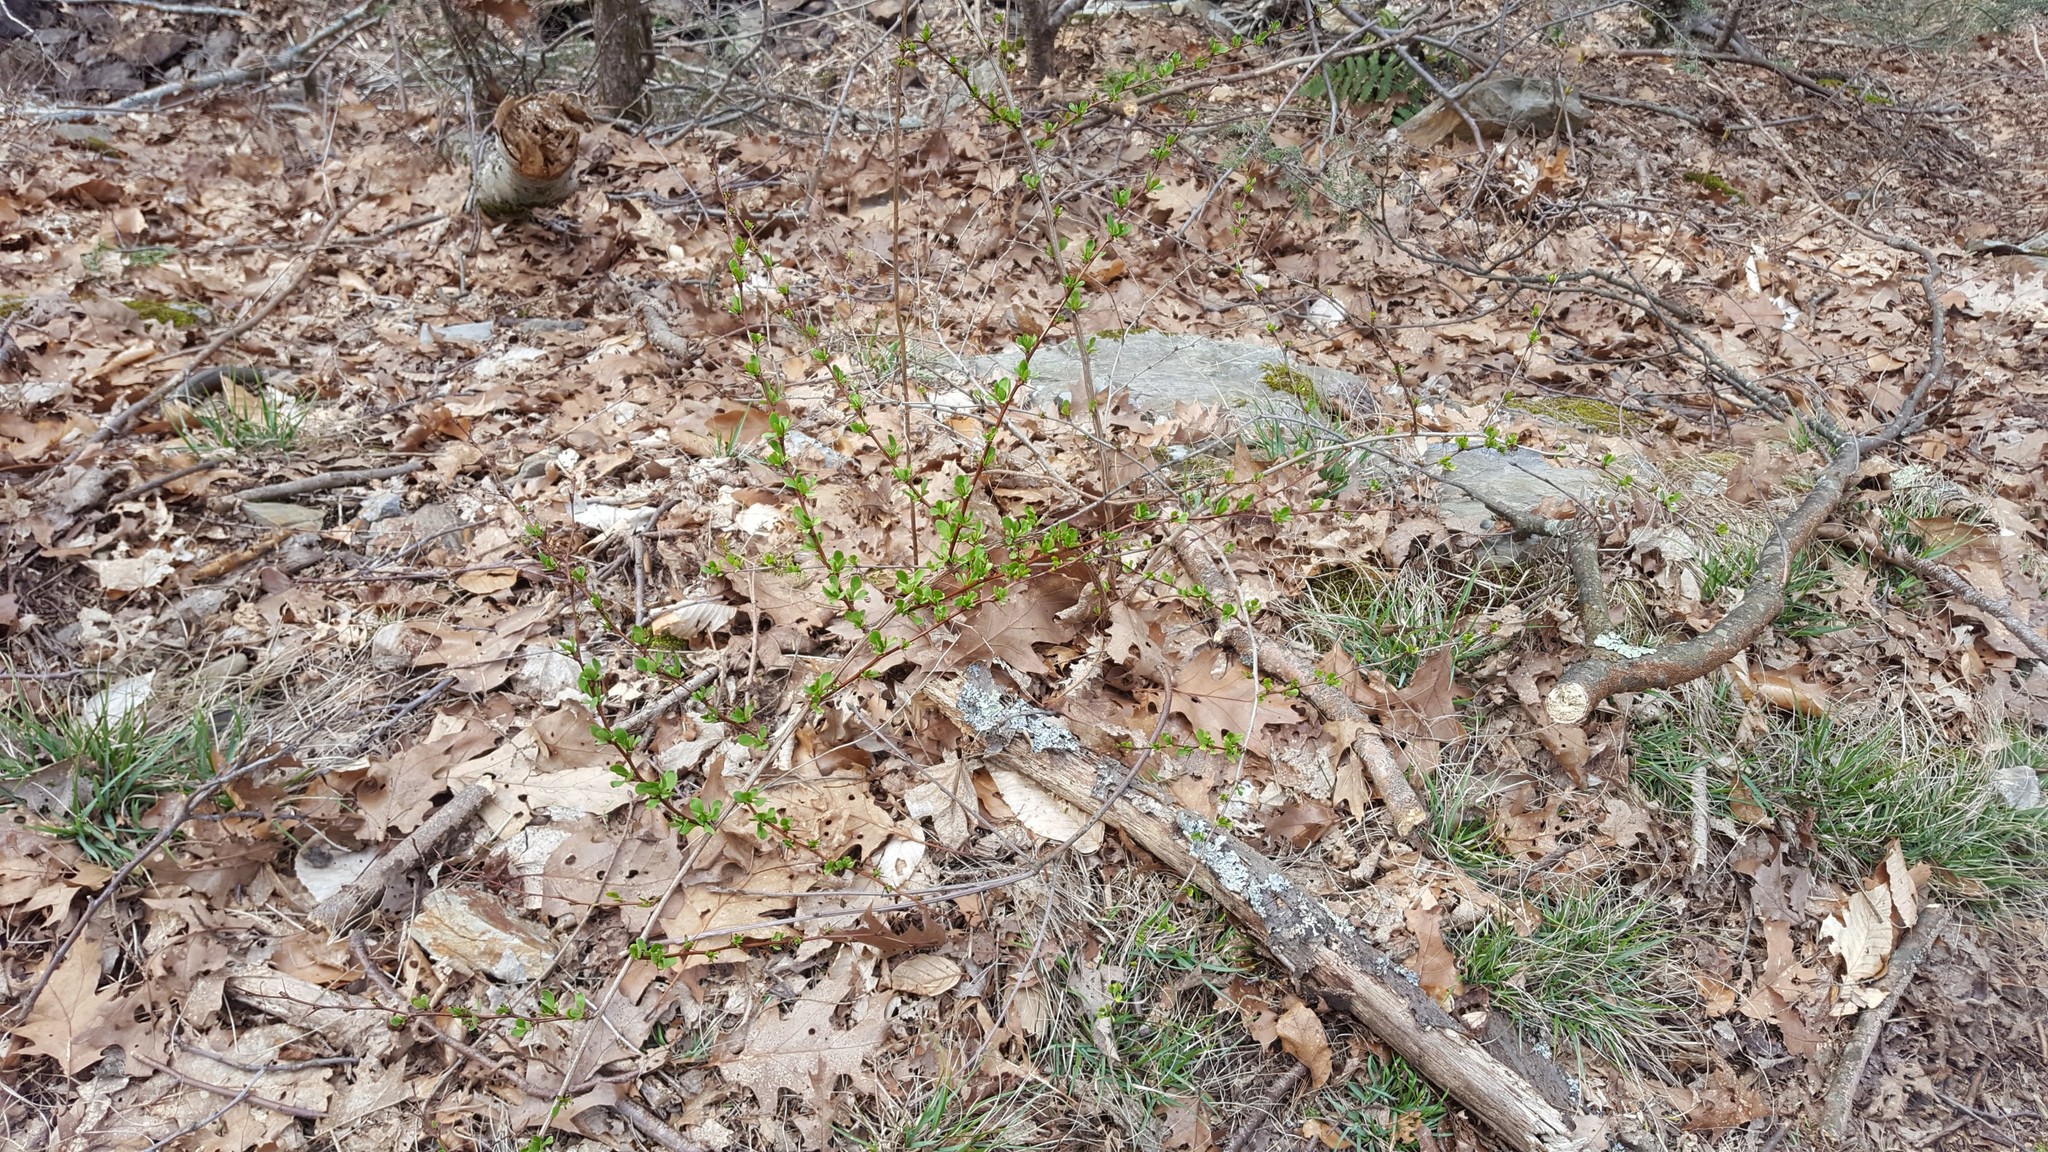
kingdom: Plantae
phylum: Tracheophyta
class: Magnoliopsida
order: Ranunculales
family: Berberidaceae
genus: Berberis
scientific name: Berberis thunbergii
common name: Japanese barberry
